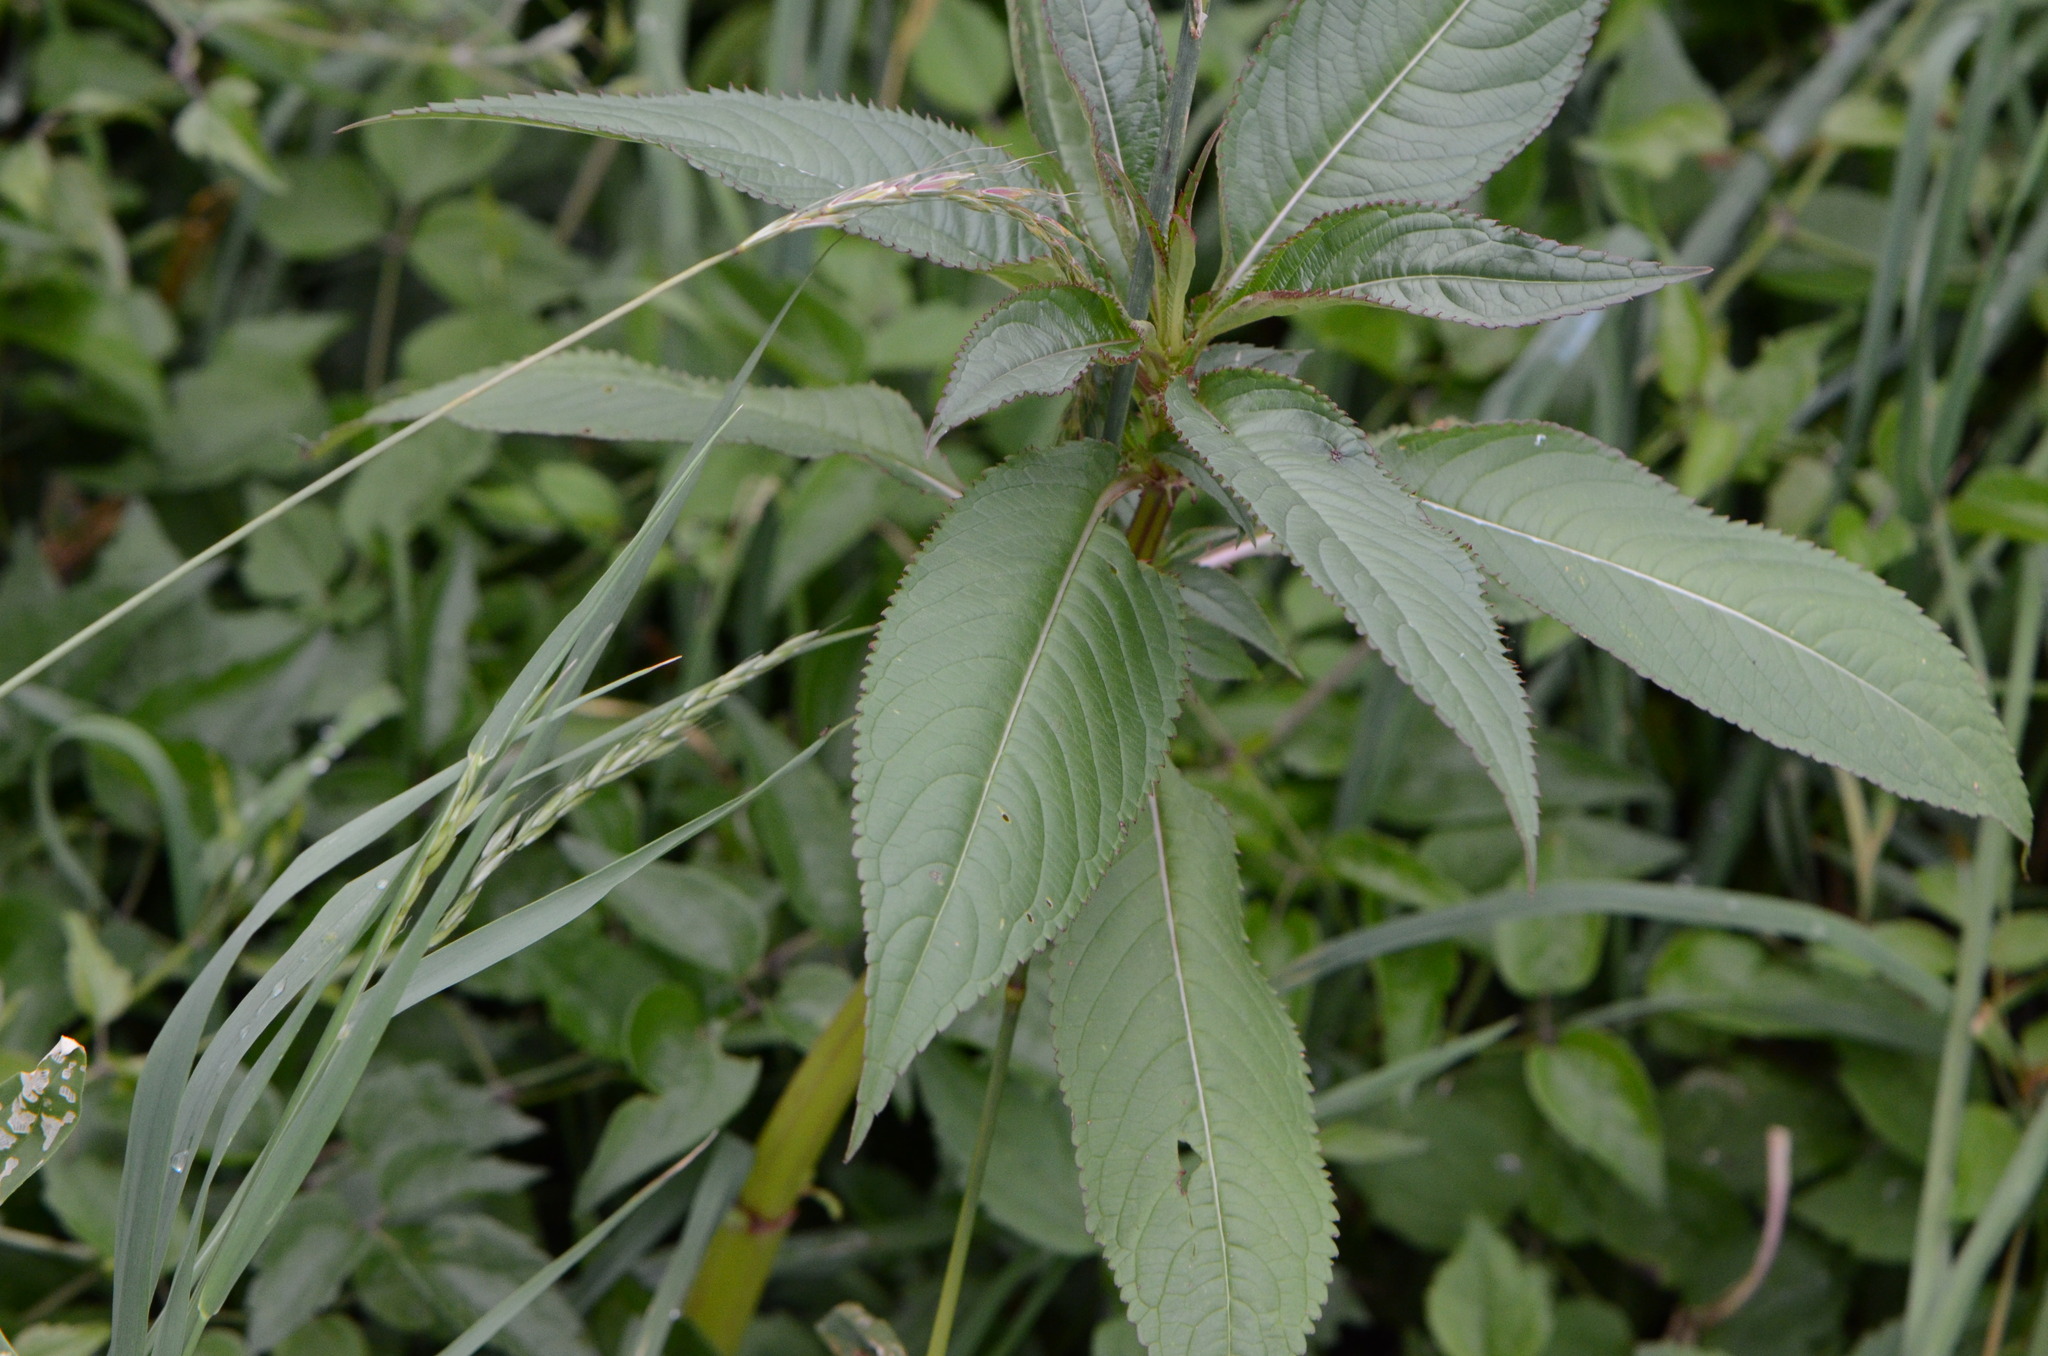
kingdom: Plantae
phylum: Tracheophyta
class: Magnoliopsida
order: Ericales
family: Balsaminaceae
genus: Impatiens
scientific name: Impatiens glandulifera
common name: Himalayan balsam
